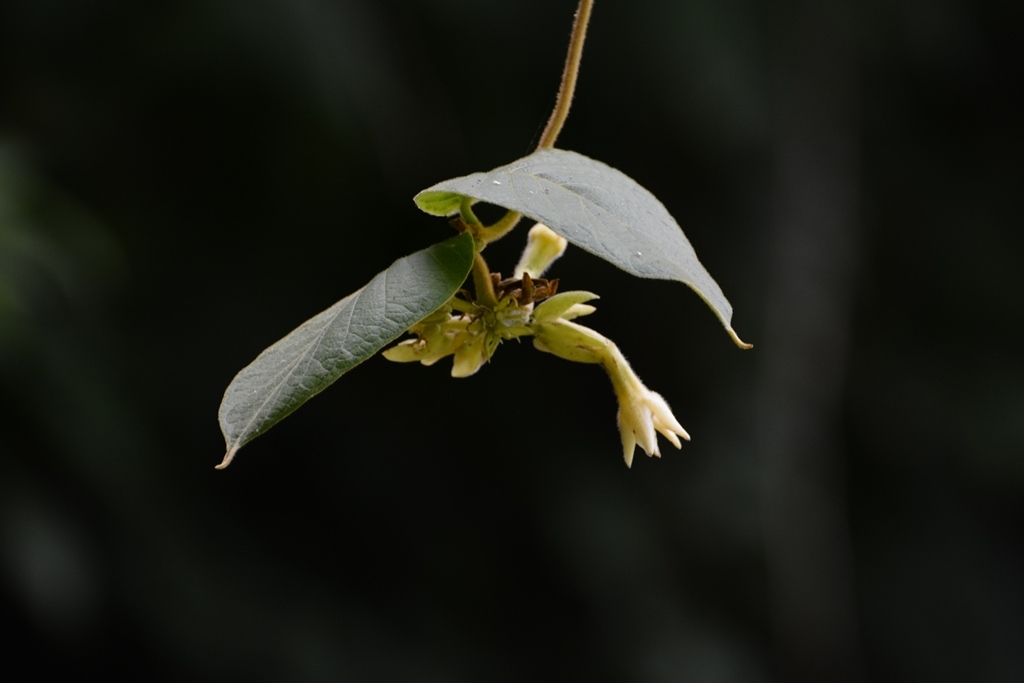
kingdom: Plantae
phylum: Tracheophyta
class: Magnoliopsida
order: Gentianales
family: Apocynaceae
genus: Prestonia
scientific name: Prestonia mexicana
